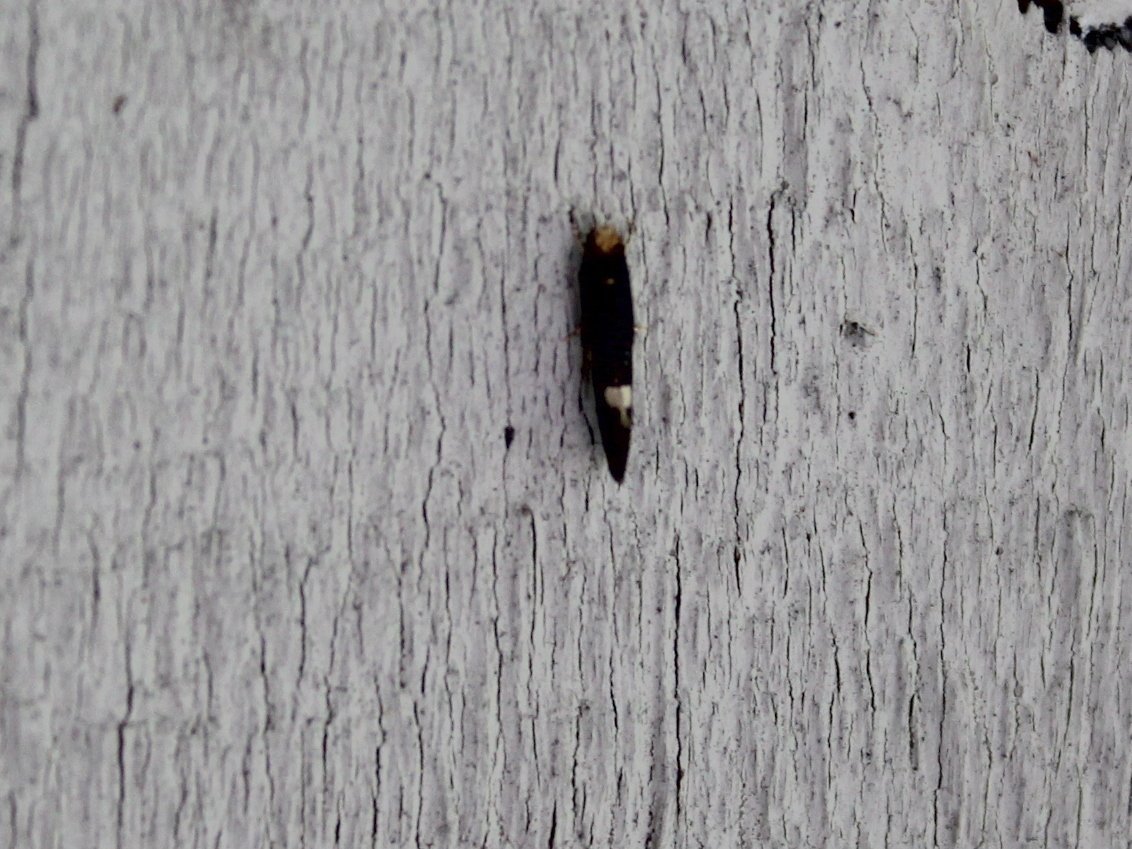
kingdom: Animalia
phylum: Arthropoda
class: Insecta
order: Lepidoptera
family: Tineidae
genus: Monopis
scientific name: Monopis spilotella
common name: Orange-headed monopis
